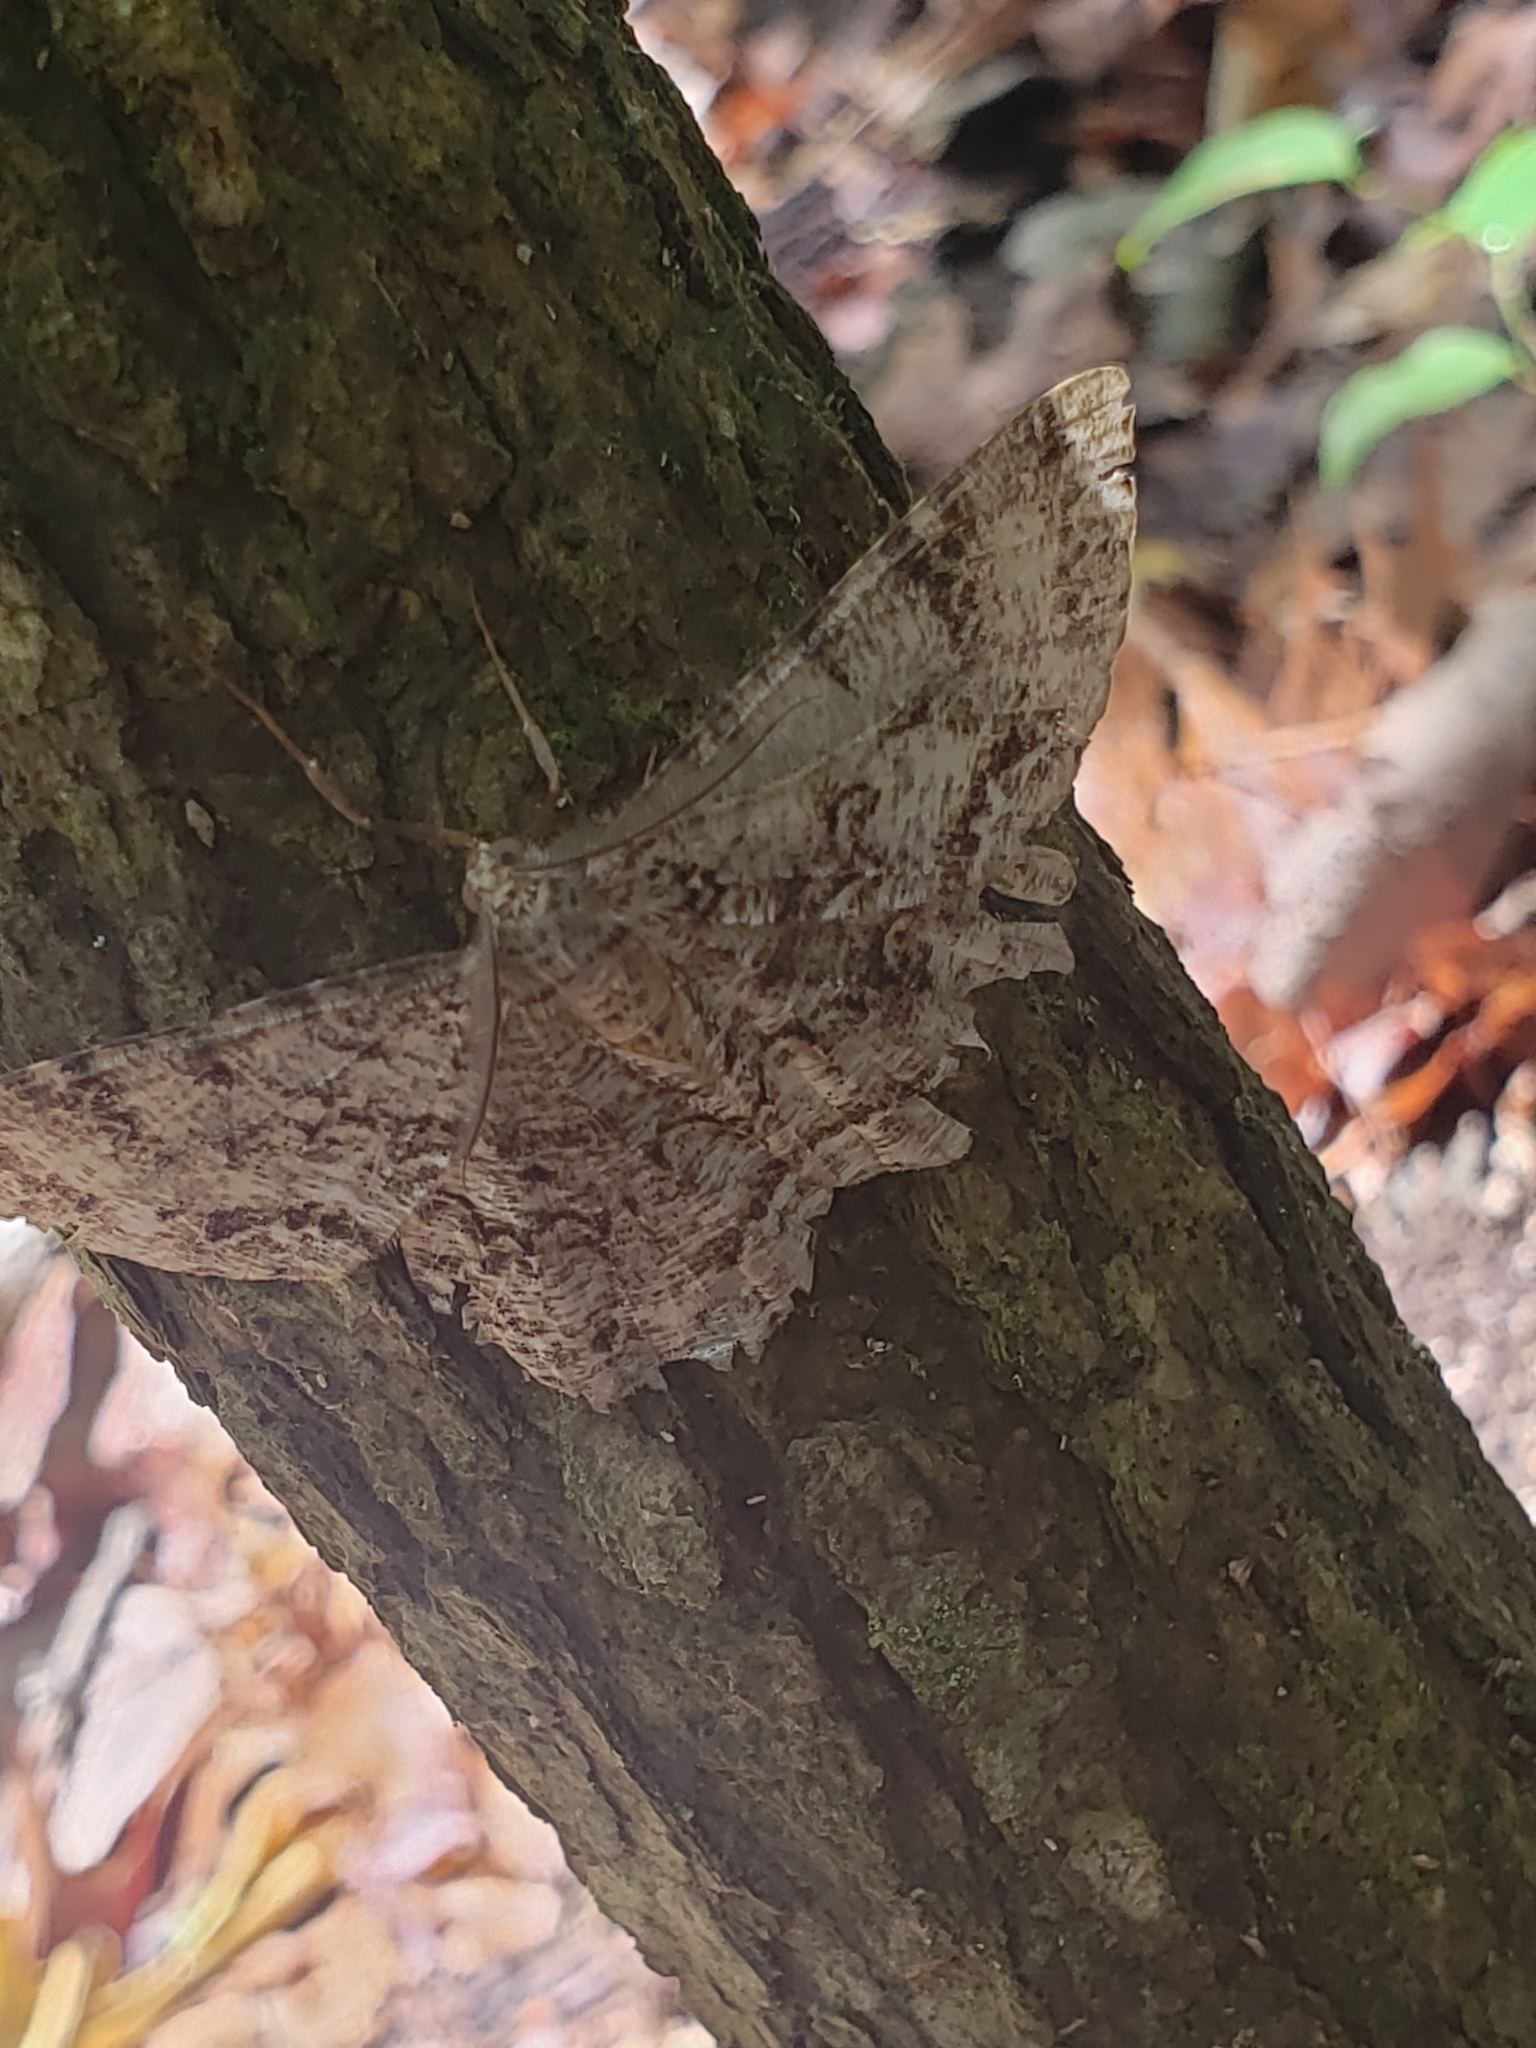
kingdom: Animalia
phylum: Arthropoda
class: Insecta
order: Lepidoptera
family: Geometridae
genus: Epimecis
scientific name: Epimecis hortaria
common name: Tulip-tree beauty
